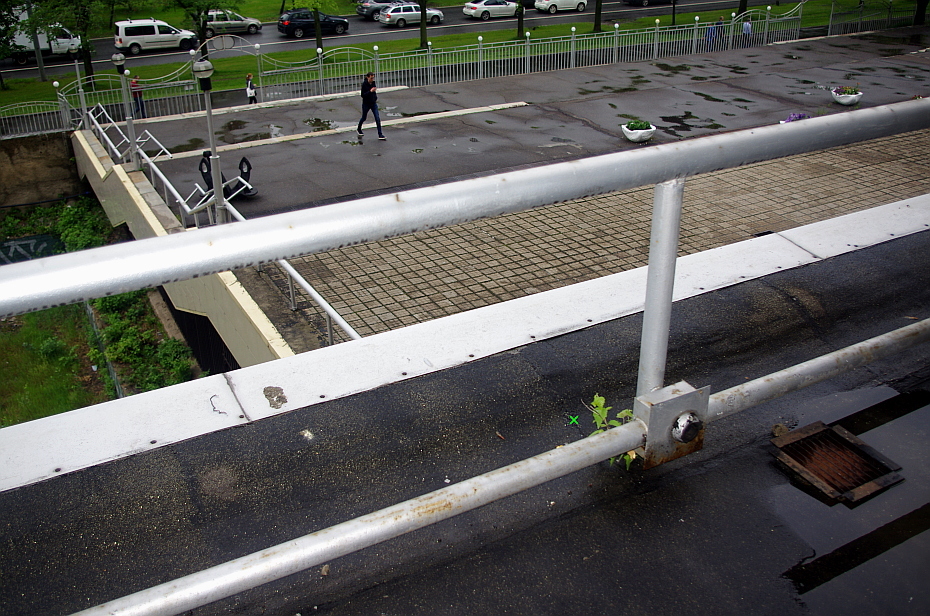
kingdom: Plantae
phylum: Tracheophyta
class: Magnoliopsida
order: Fagales
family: Betulaceae
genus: Betula
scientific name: Betula pubescens
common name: Downy birch
